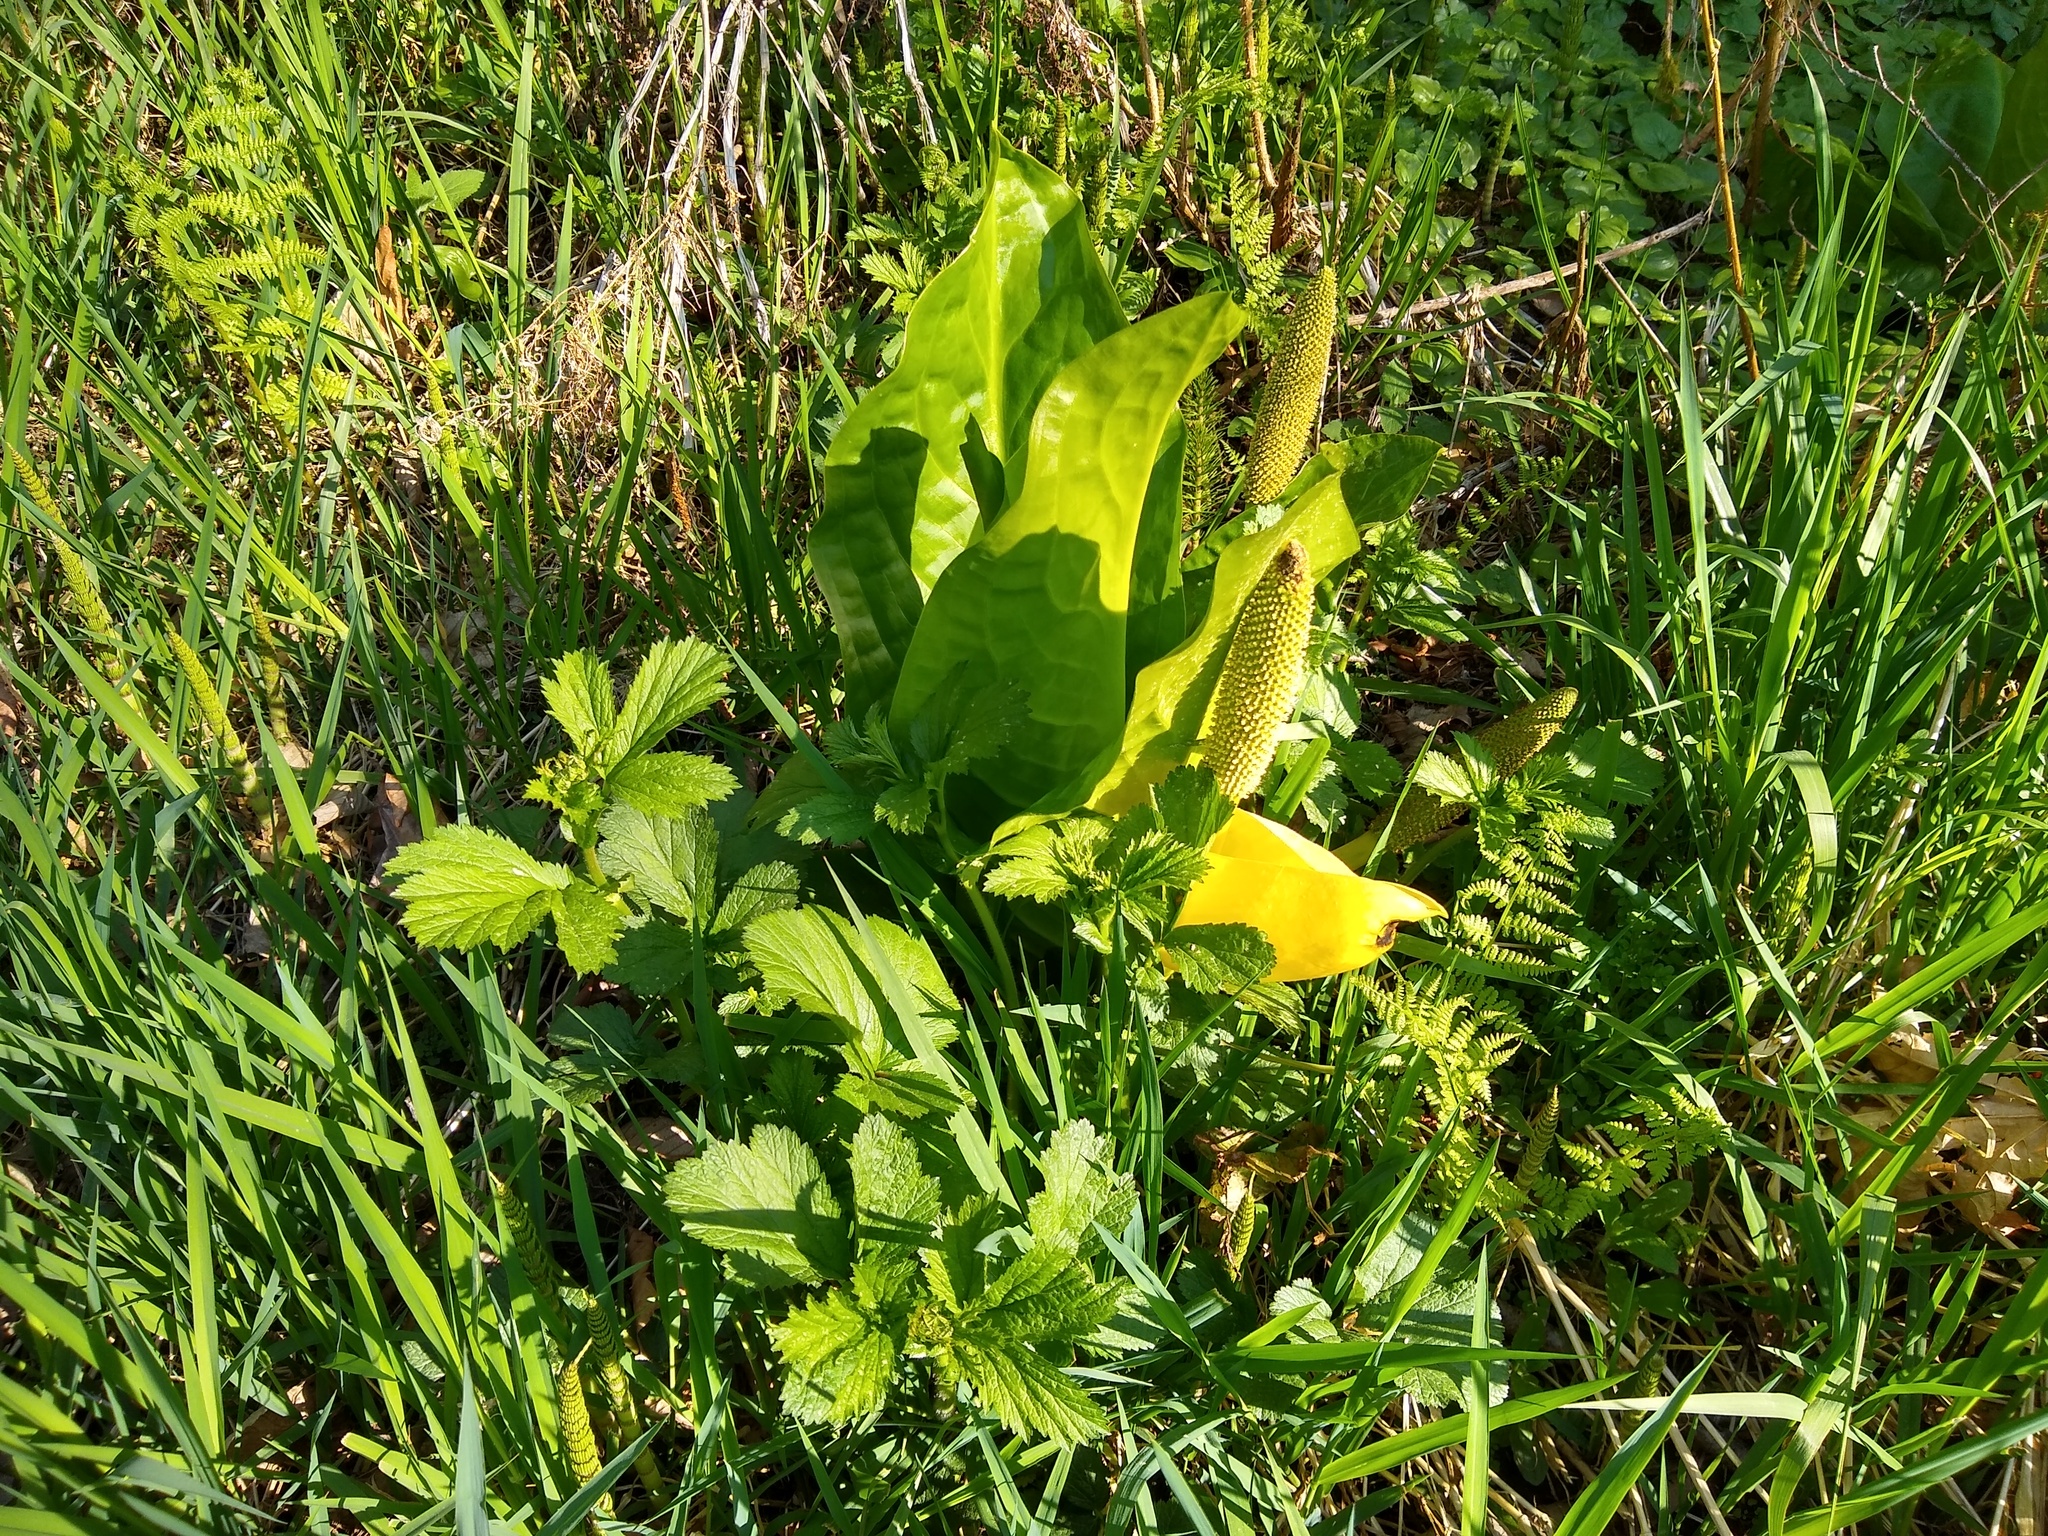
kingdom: Plantae
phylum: Tracheophyta
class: Liliopsida
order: Alismatales
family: Araceae
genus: Lysichiton
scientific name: Lysichiton americanus
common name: American skunk cabbage
